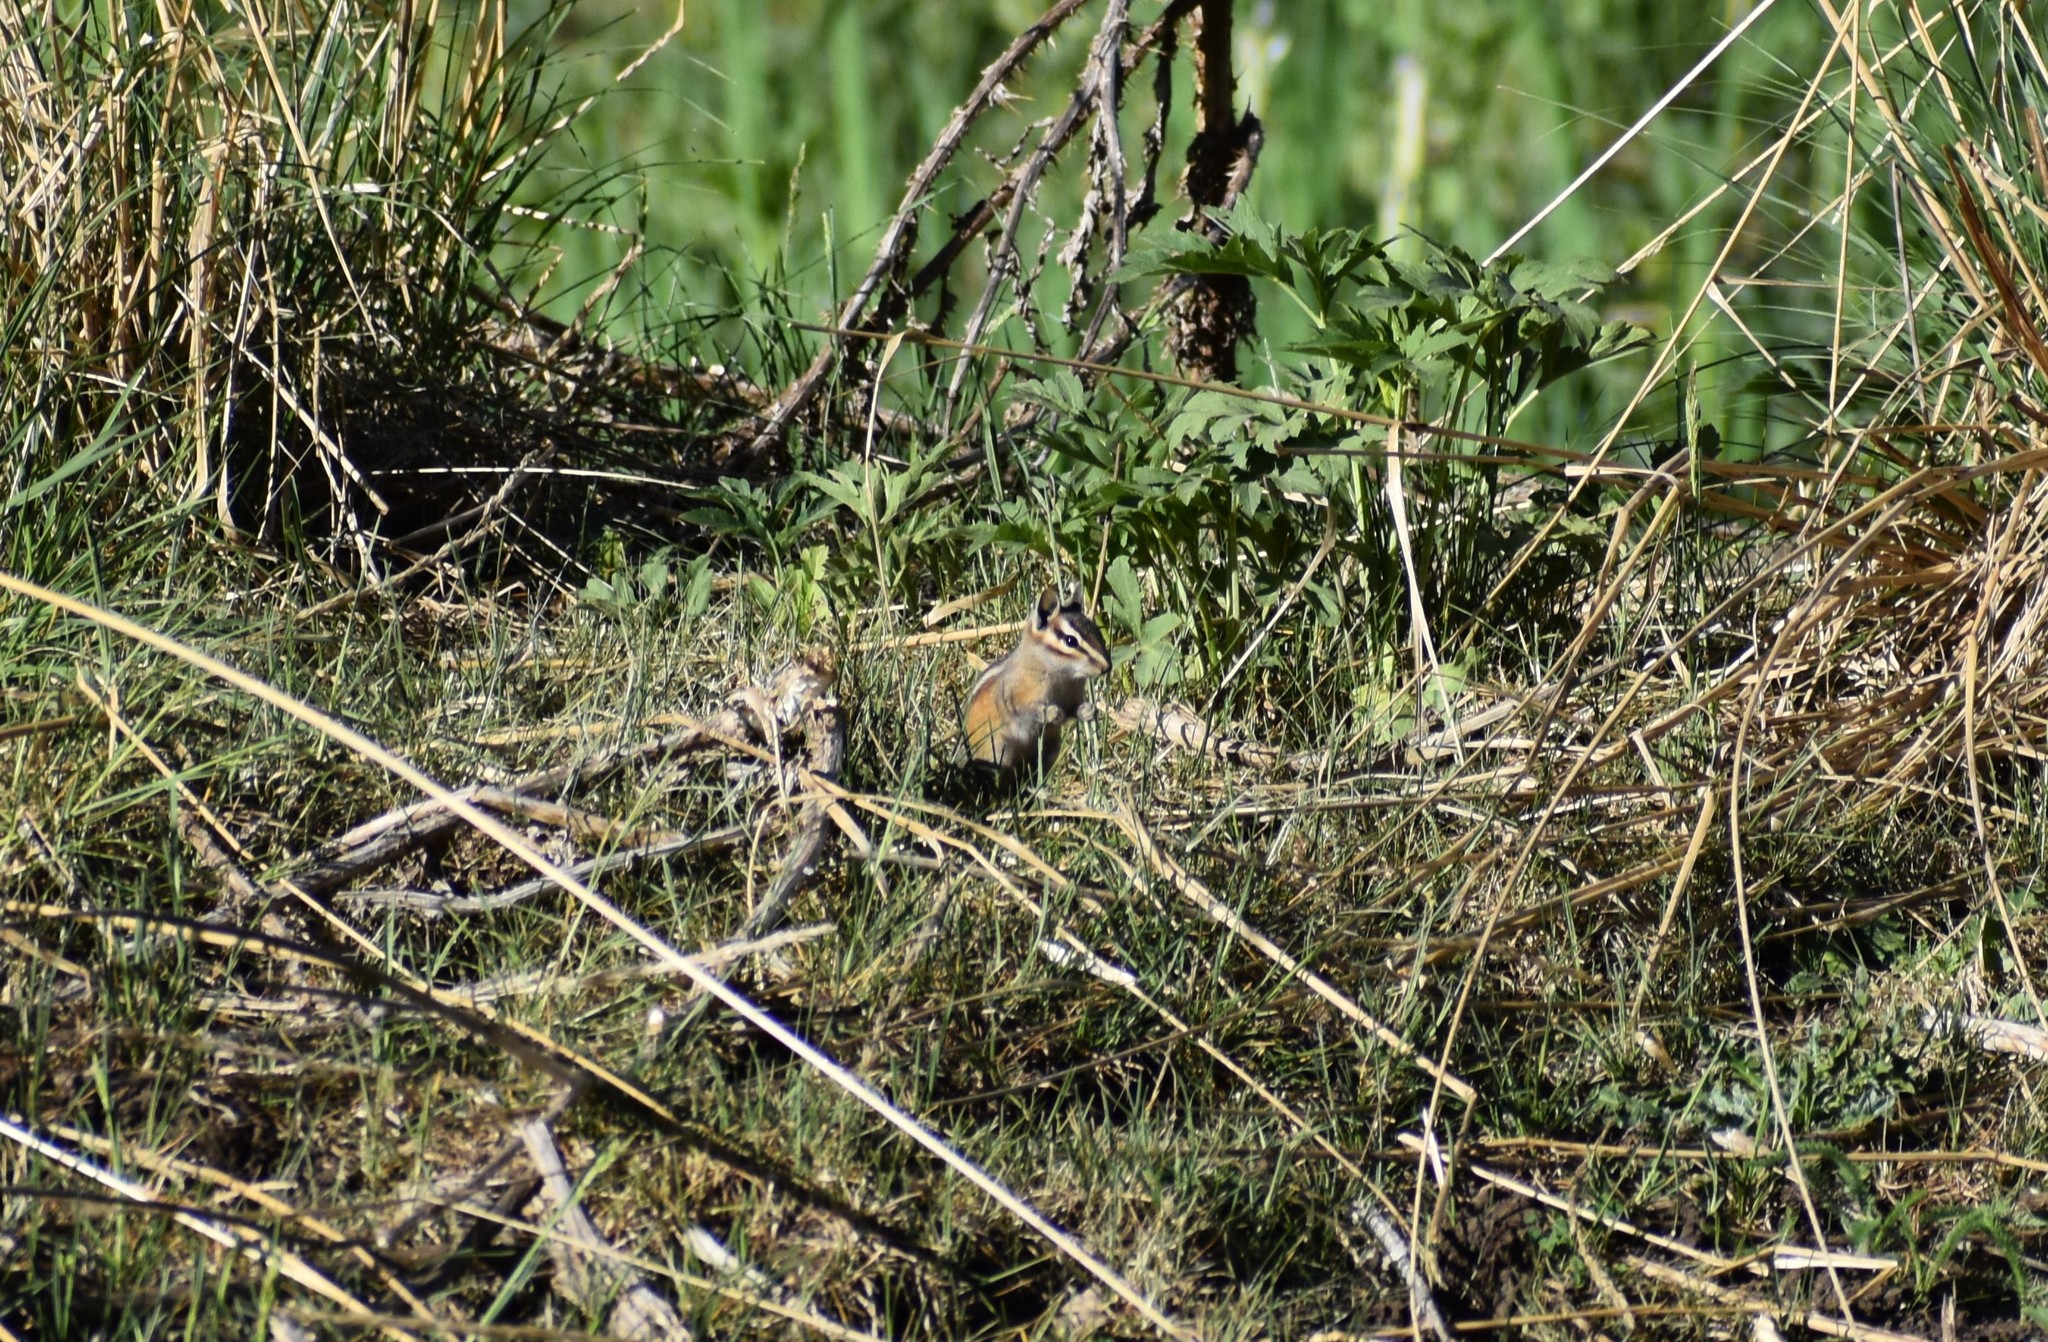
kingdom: Animalia
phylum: Chordata
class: Mammalia
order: Rodentia
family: Sciuridae
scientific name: Sciuridae
